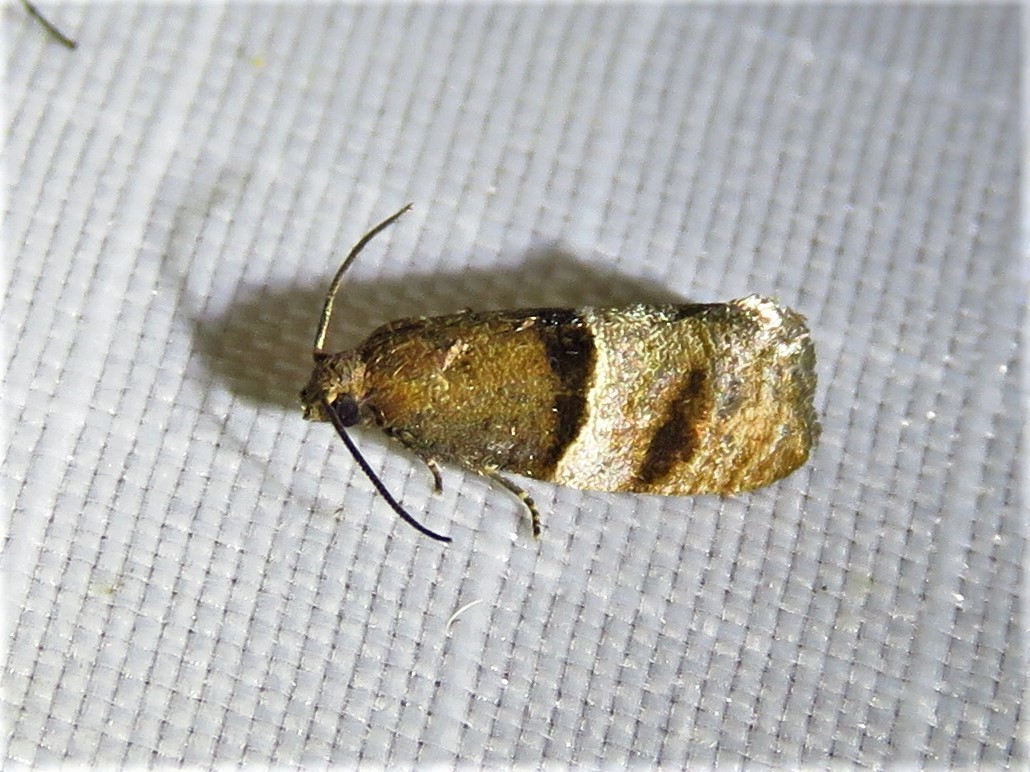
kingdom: Animalia
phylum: Arthropoda
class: Insecta
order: Lepidoptera
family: Tortricidae
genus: Larisa
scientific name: Larisa subsolana
